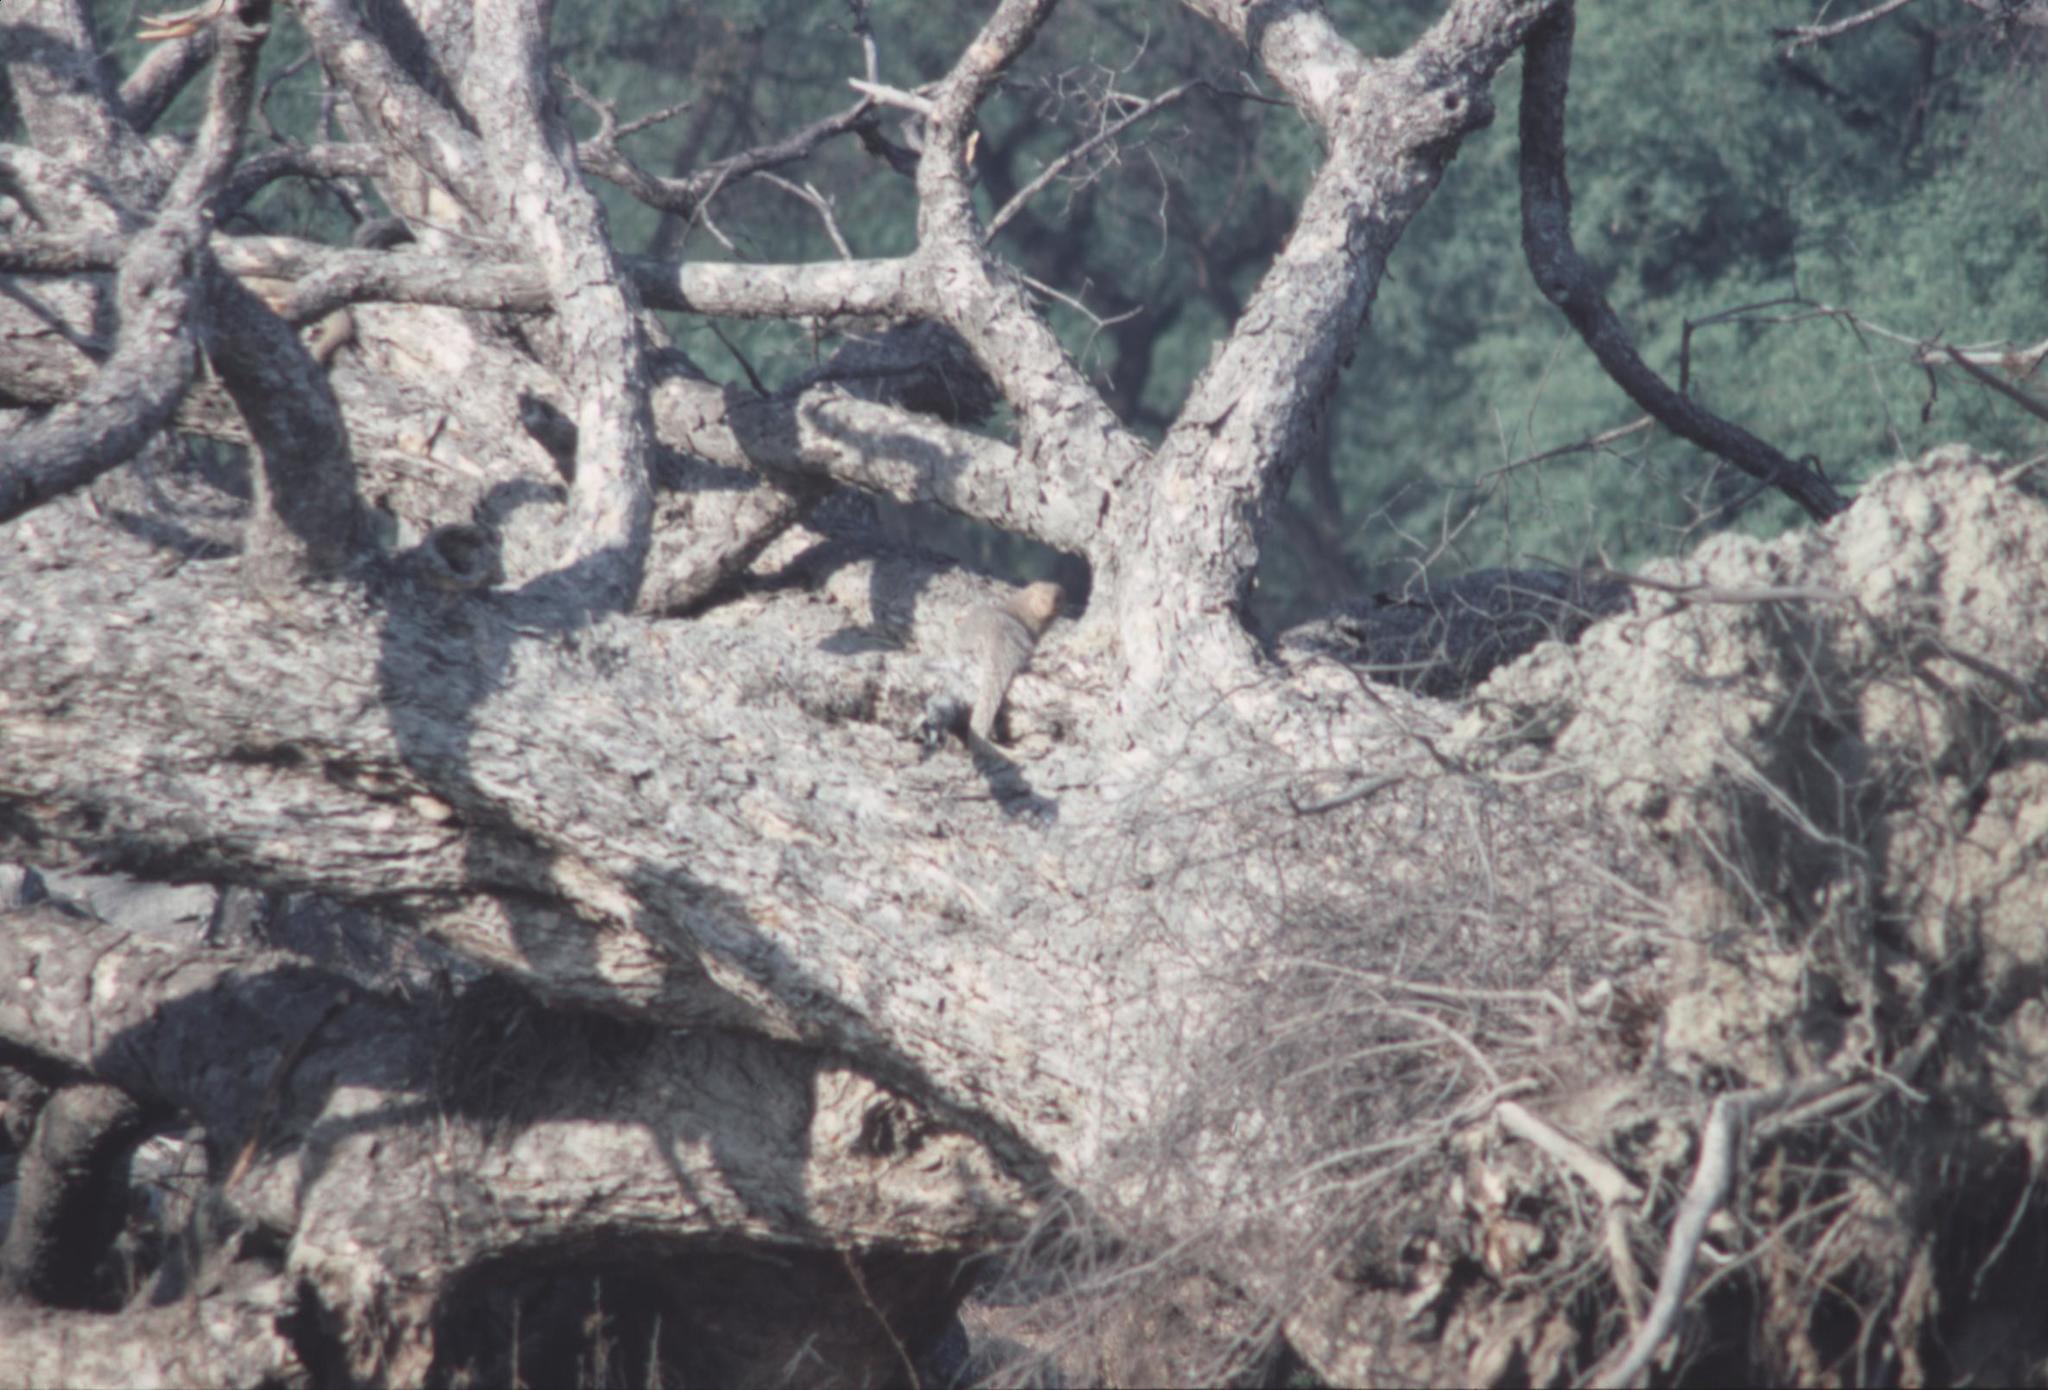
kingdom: Animalia
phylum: Chordata
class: Mammalia
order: Carnivora
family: Herpestidae
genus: Herpestes
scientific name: Herpestes edwardsi
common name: Indian gray mongoose
